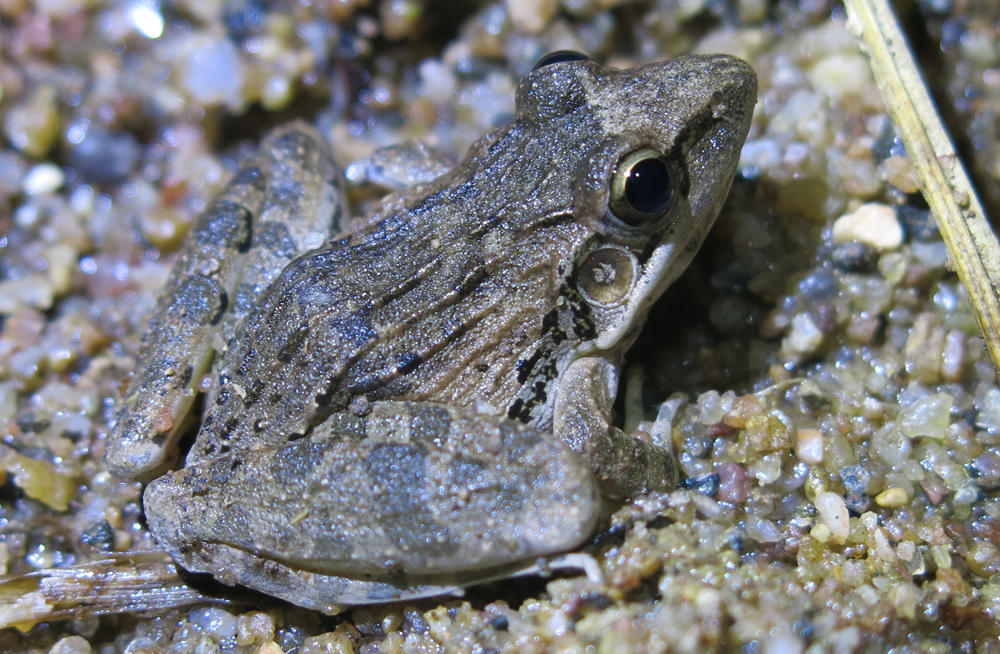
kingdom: Animalia
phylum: Chordata
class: Amphibia
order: Anura
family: Ptychadenidae
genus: Ptychadena
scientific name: Ptychadena anchietae
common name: Anchieta's ridged frog
